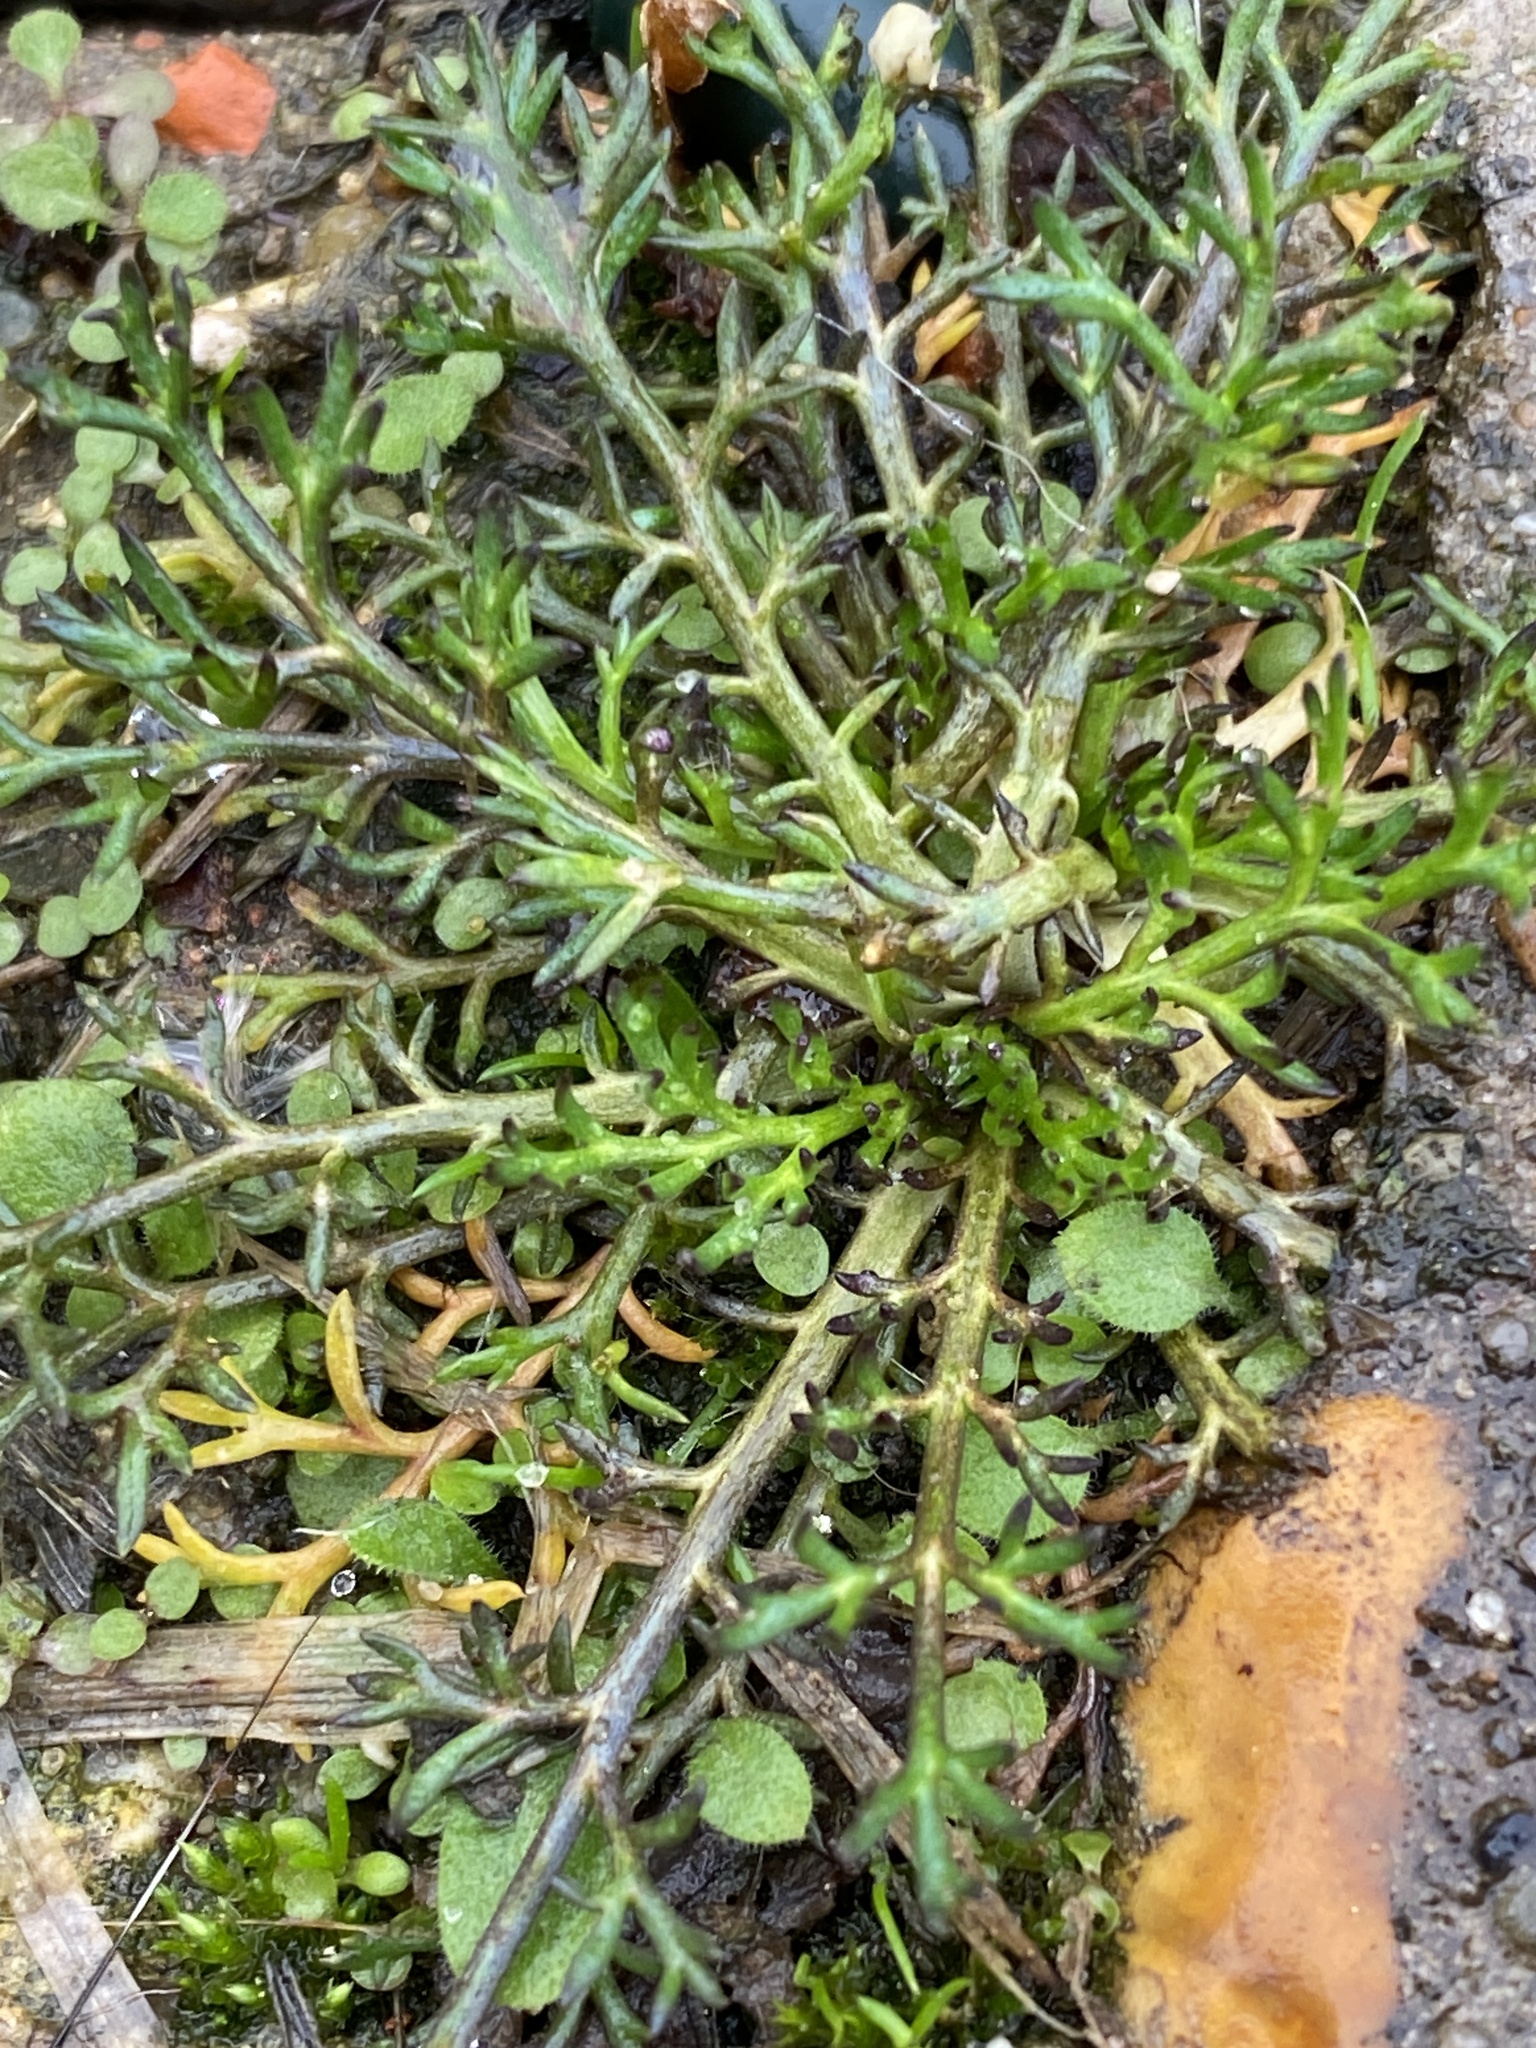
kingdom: Plantae
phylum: Tracheophyta
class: Magnoliopsida
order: Brassicales
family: Brassicaceae
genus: Lepidium
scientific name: Lepidium coronopus
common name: Greater swinecress
